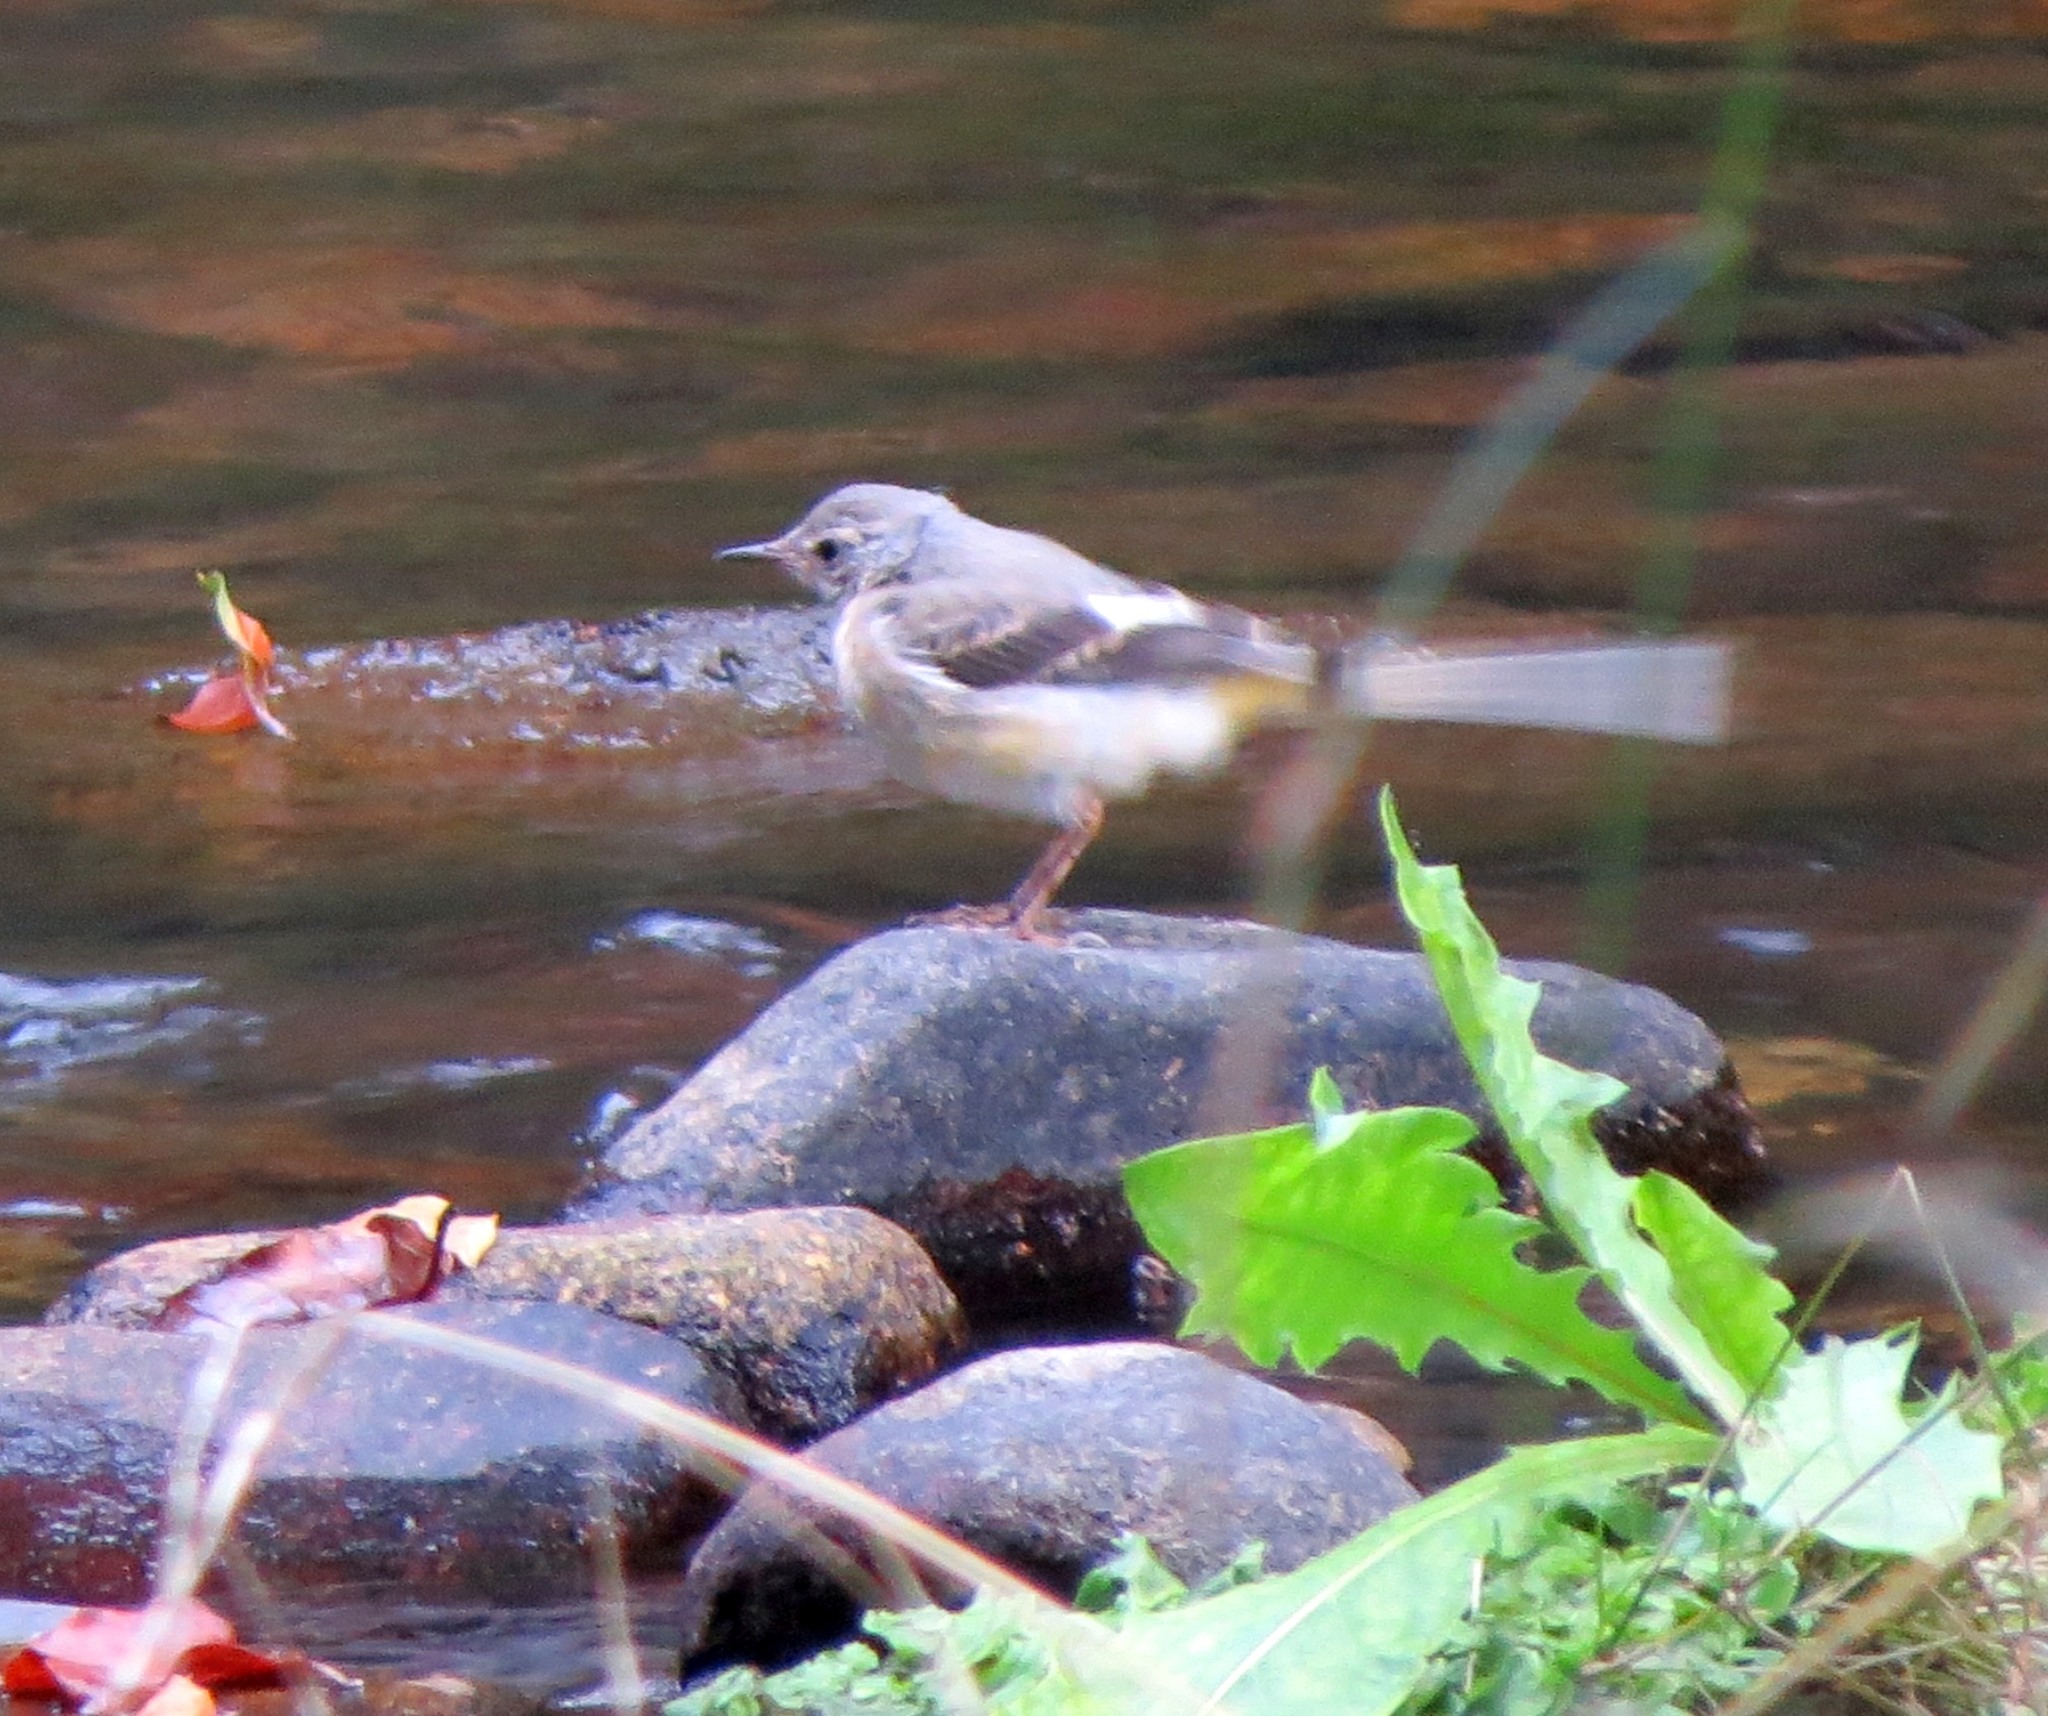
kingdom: Animalia
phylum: Chordata
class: Aves
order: Passeriformes
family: Motacillidae
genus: Motacilla
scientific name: Motacilla cinerea
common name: Grey wagtail
